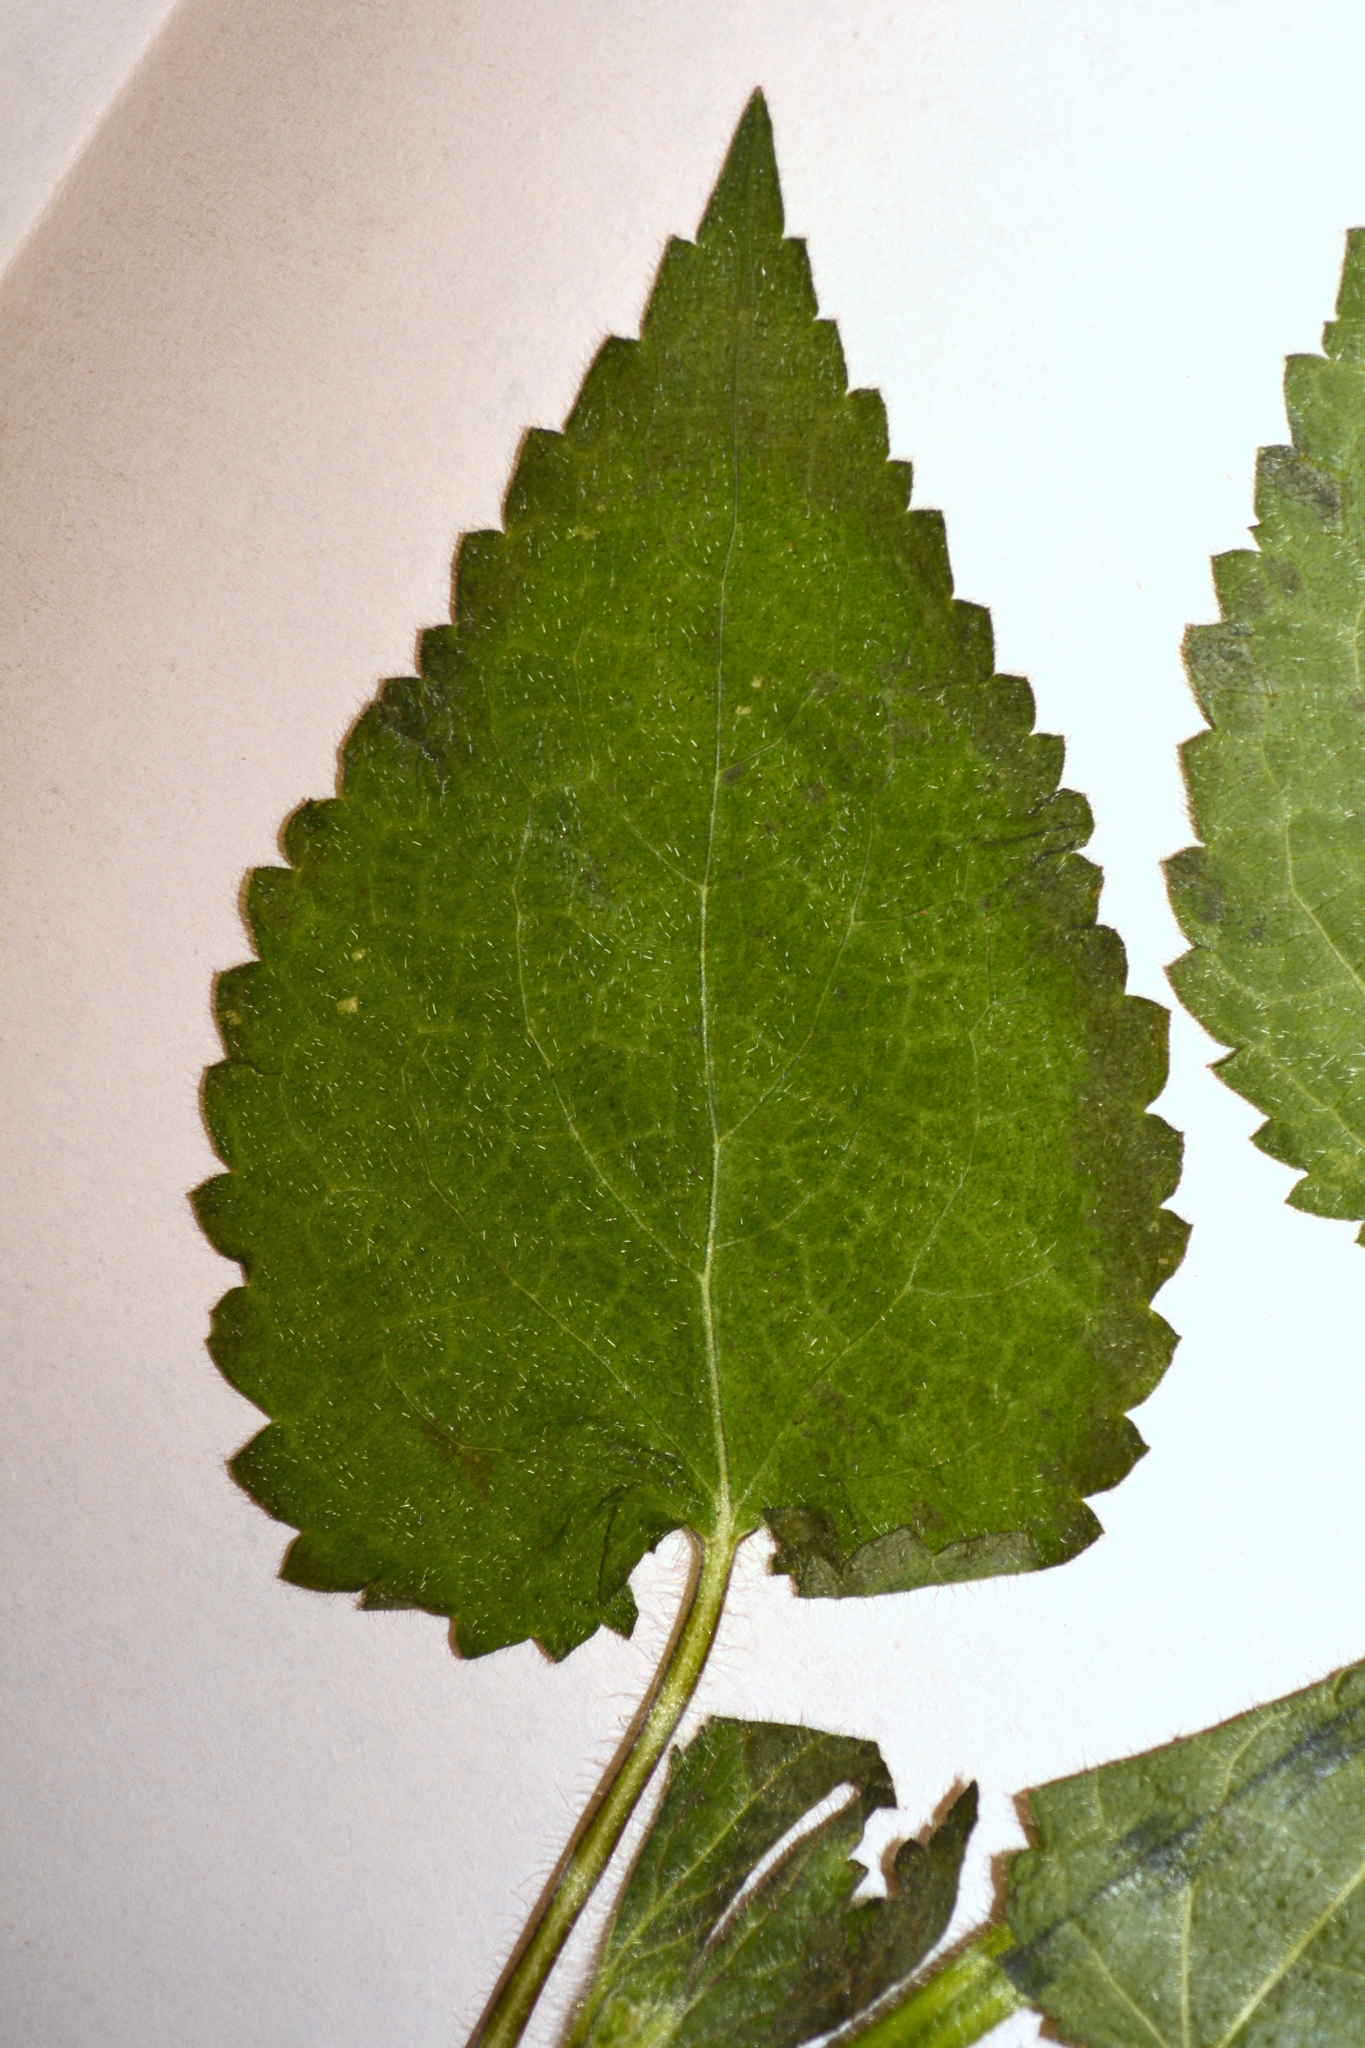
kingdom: Plantae
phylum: Tracheophyta
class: Magnoliopsida
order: Lamiales
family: Lamiaceae
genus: Stachys
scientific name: Stachys sylvatica
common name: Hedge woundwort
